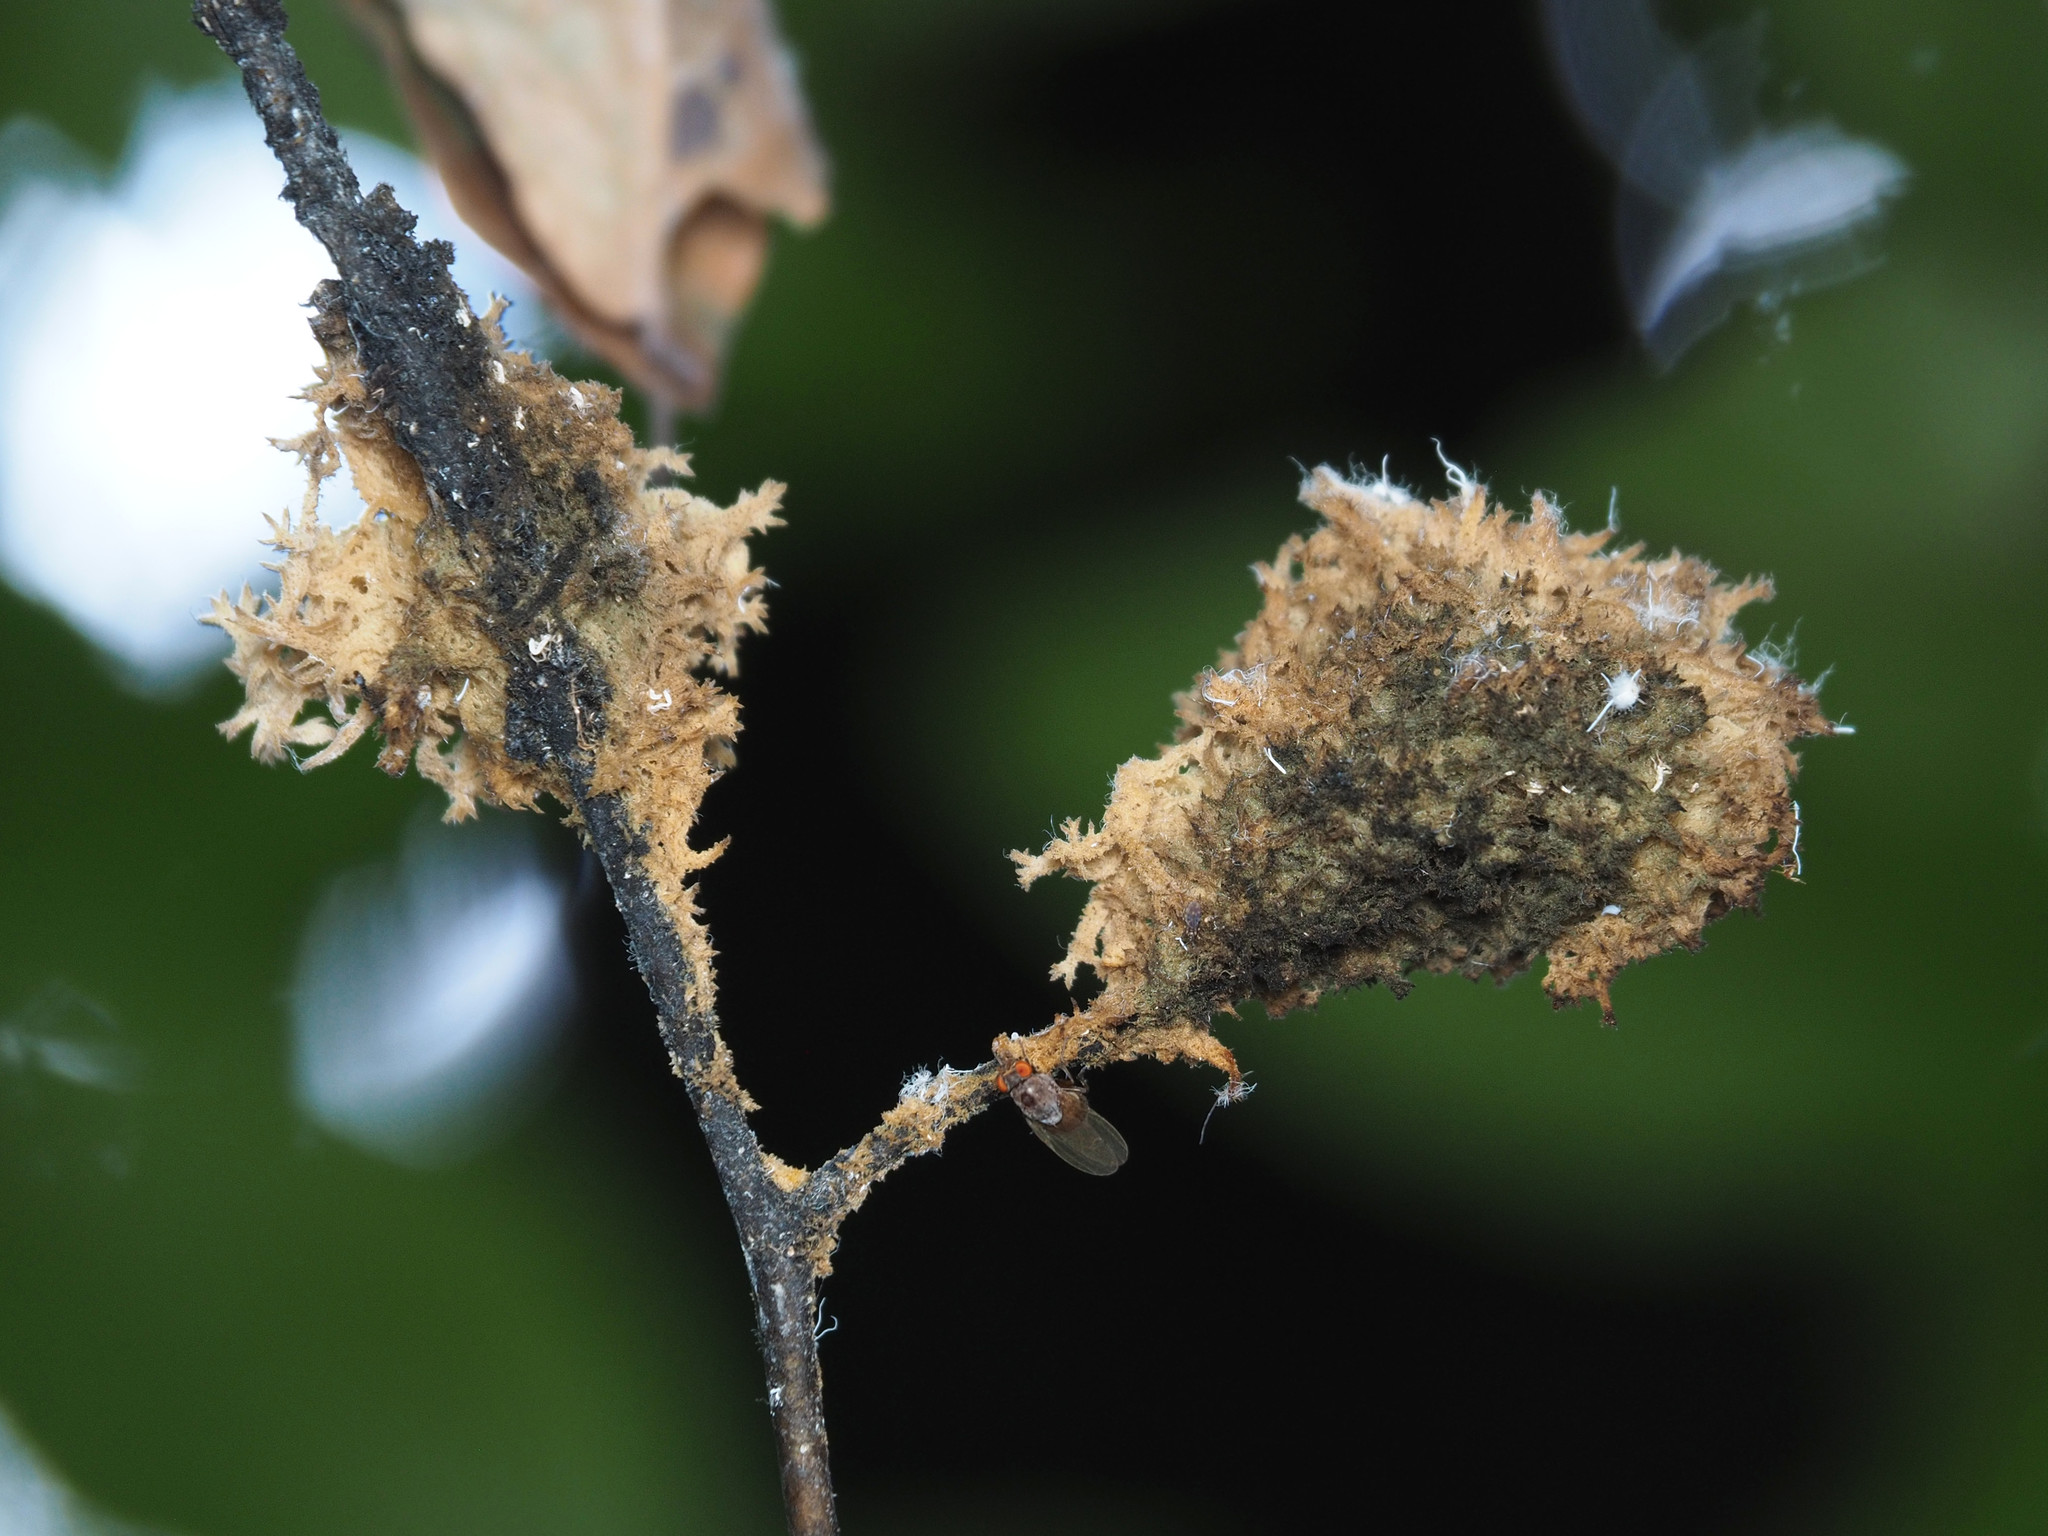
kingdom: Fungi
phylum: Ascomycota
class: Dothideomycetes
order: Capnodiales
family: Capnodiaceae
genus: Scorias
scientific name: Scorias spongiosa
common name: Black sooty mold
